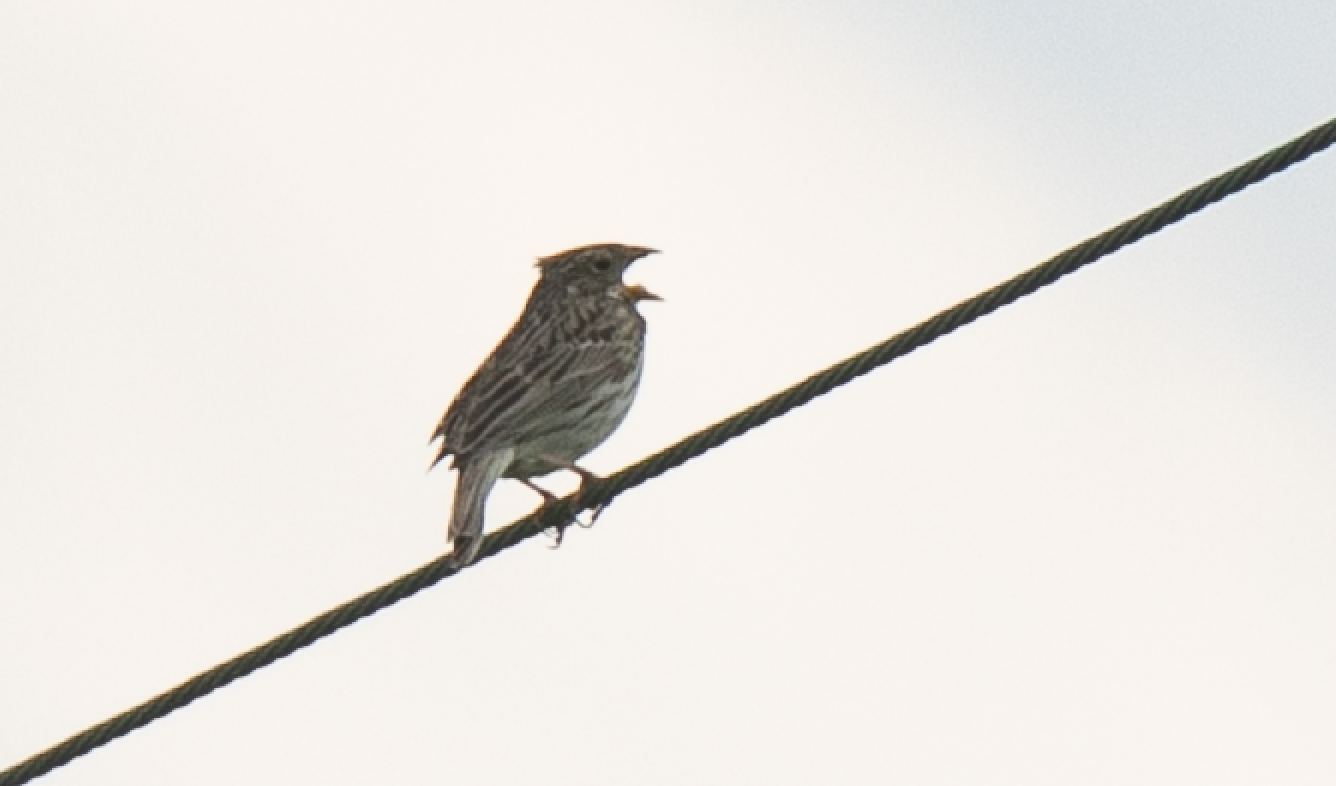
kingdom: Animalia
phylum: Chordata
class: Aves
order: Passeriformes
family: Emberizidae
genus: Emberiza
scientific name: Emberiza calandra
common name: Corn bunting
